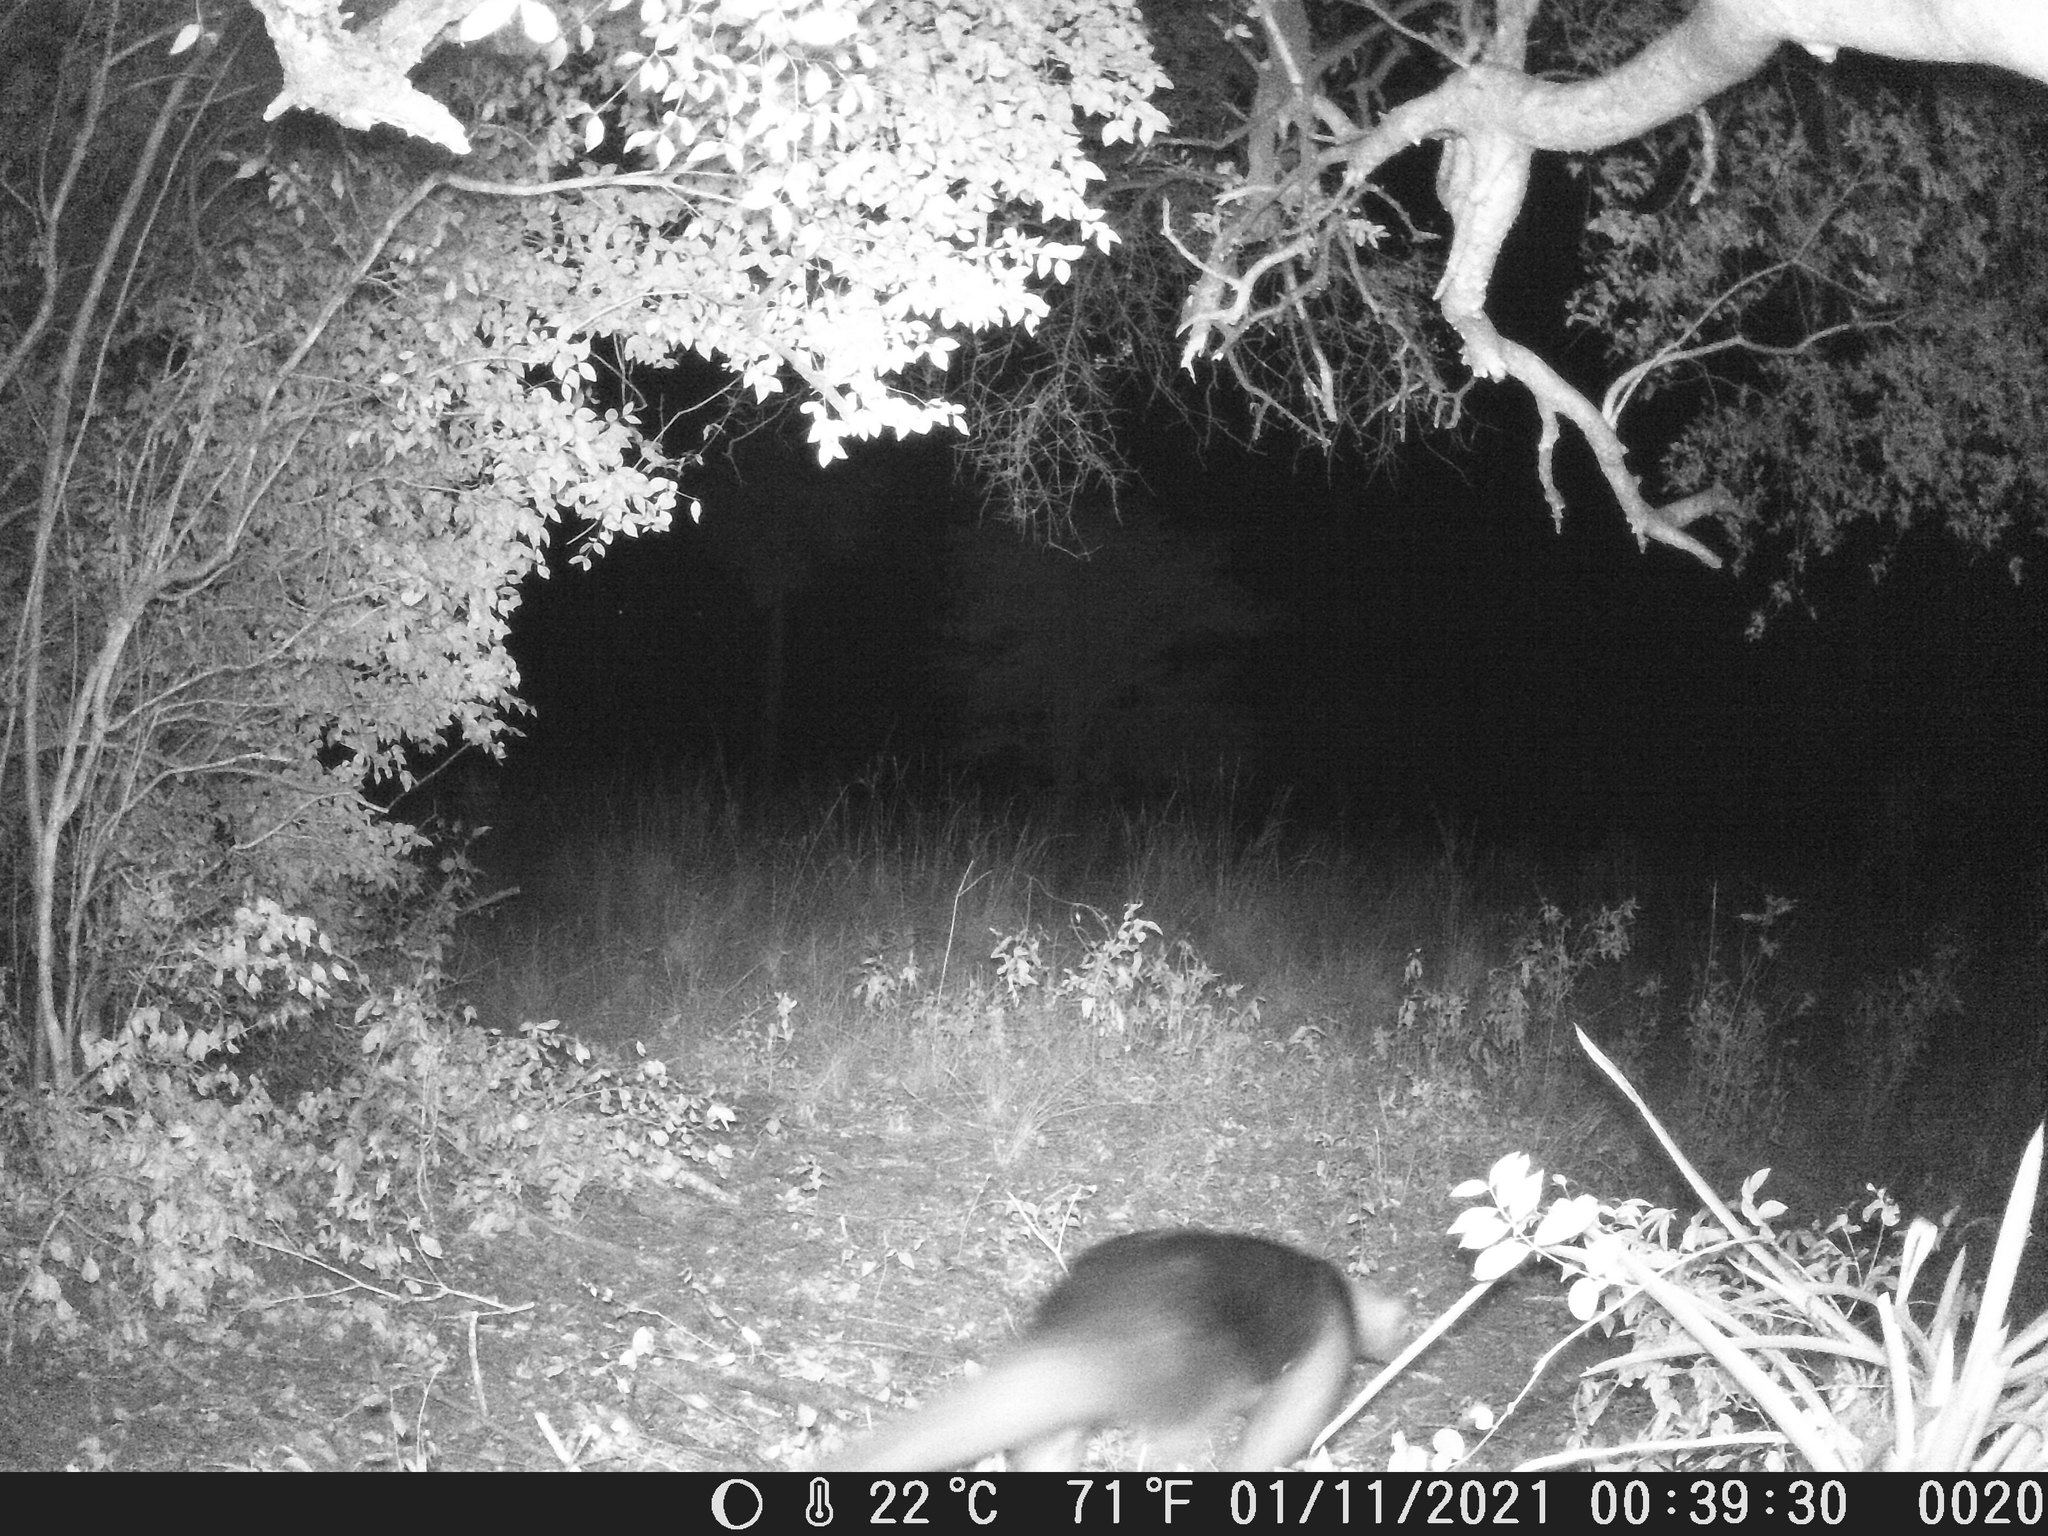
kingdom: Animalia
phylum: Chordata
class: Mammalia
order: Pilosa
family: Myrmecophagidae
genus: Tamandua
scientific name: Tamandua tetradactyla
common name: Southern tamandua
